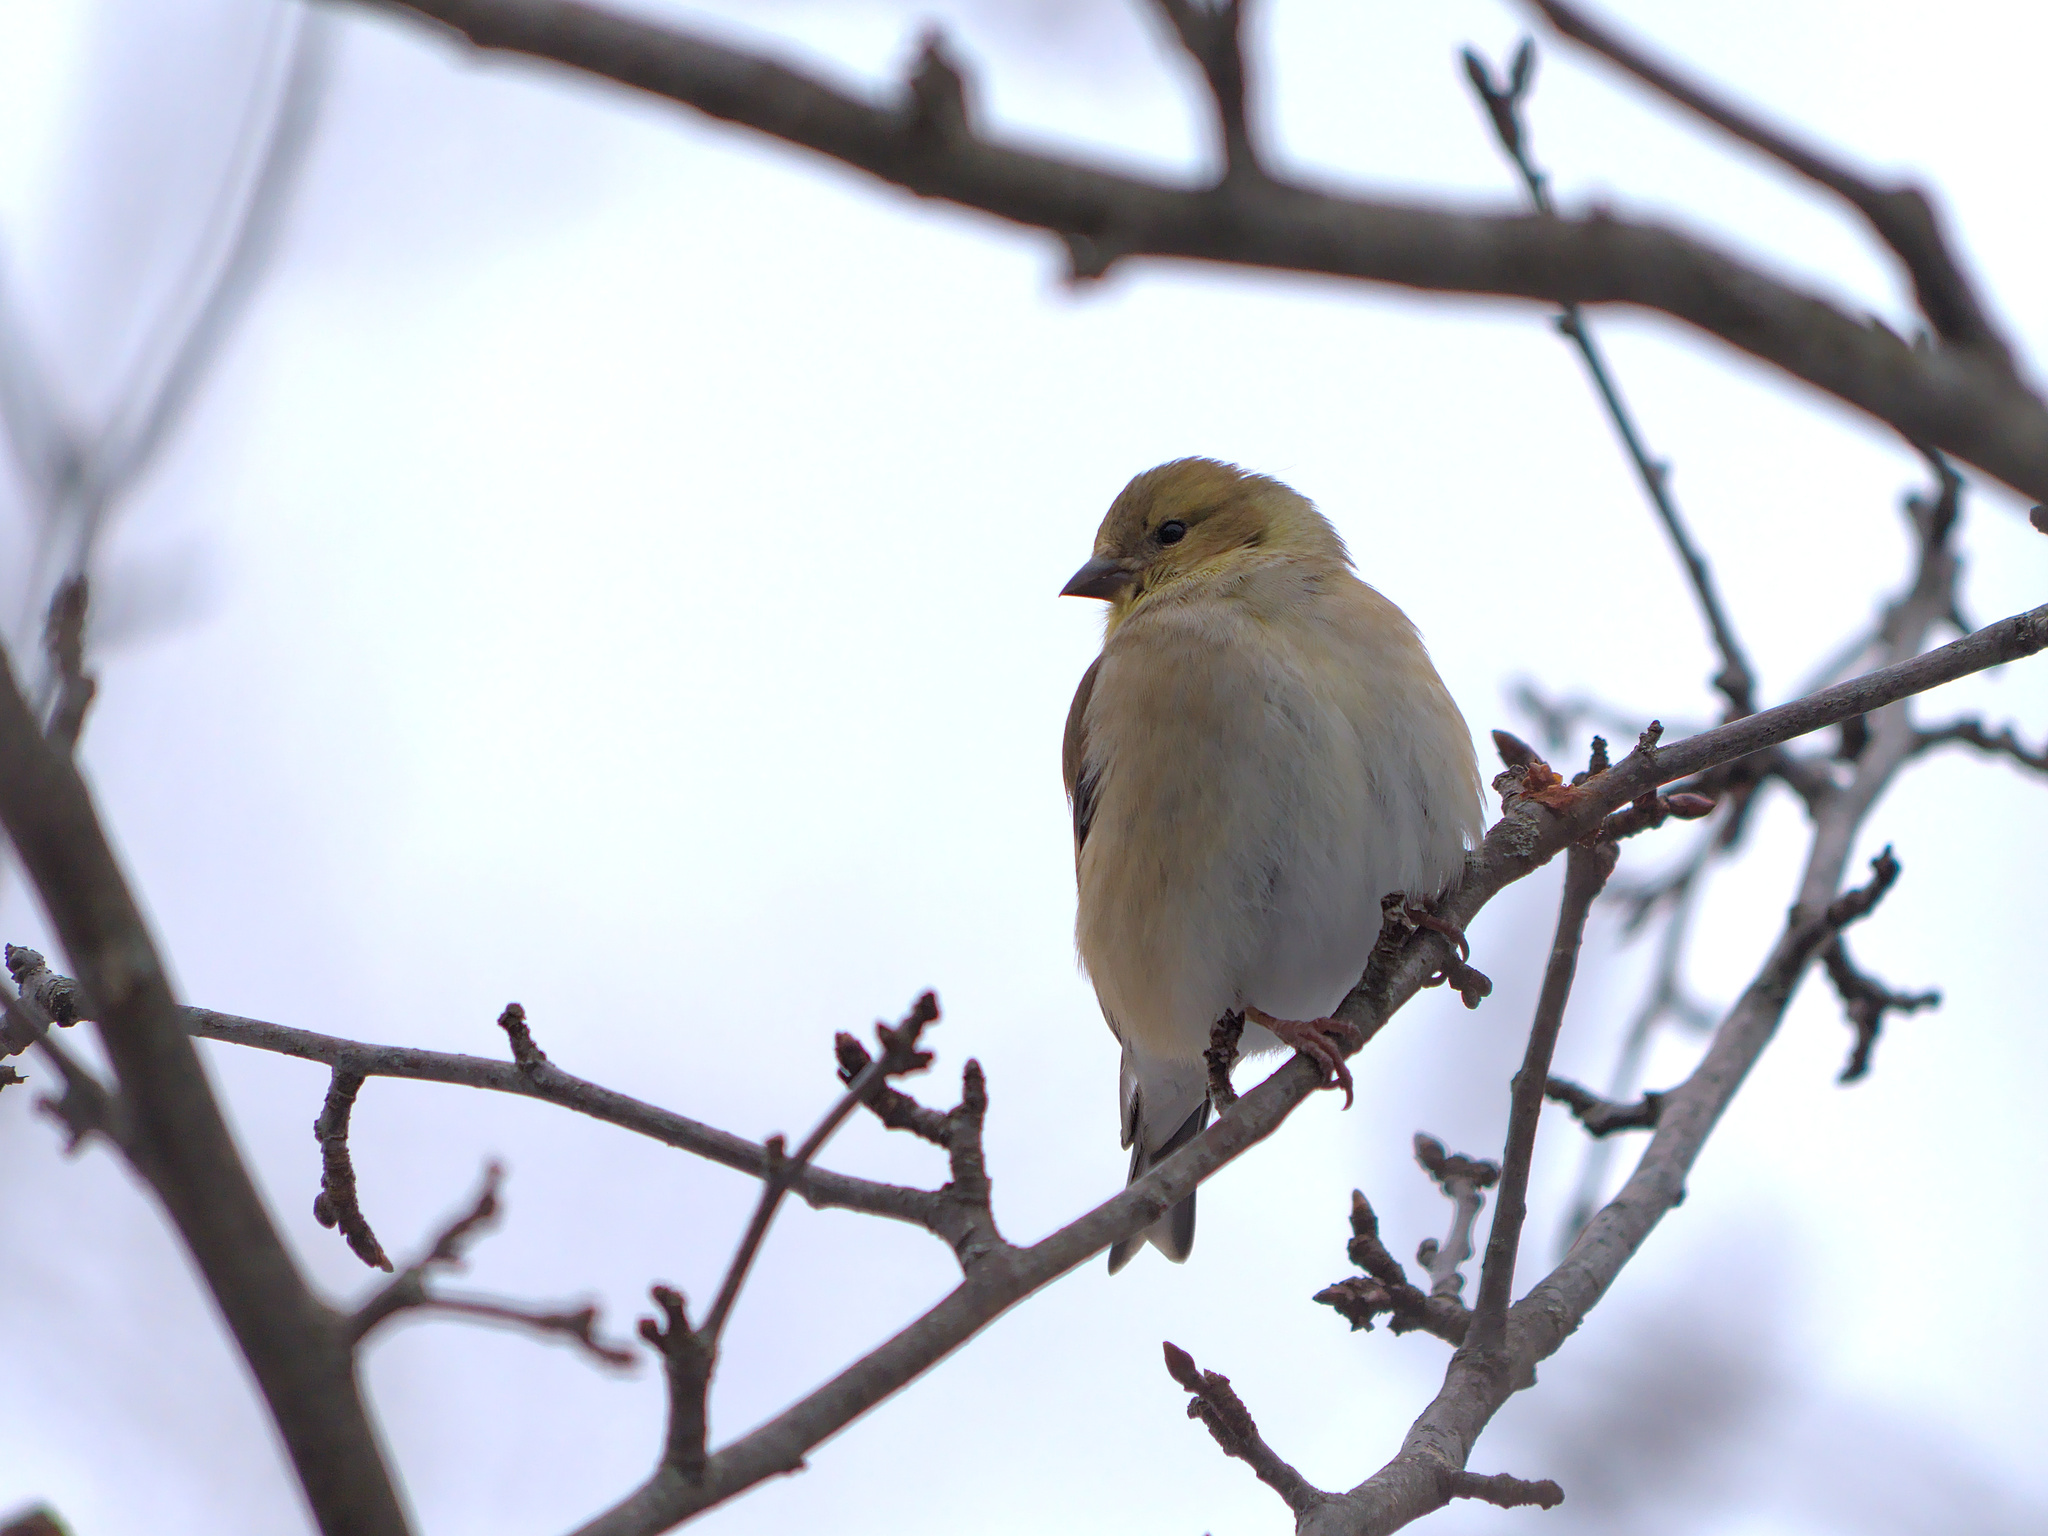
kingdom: Animalia
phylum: Chordata
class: Aves
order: Passeriformes
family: Fringillidae
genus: Spinus
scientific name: Spinus tristis
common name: American goldfinch
